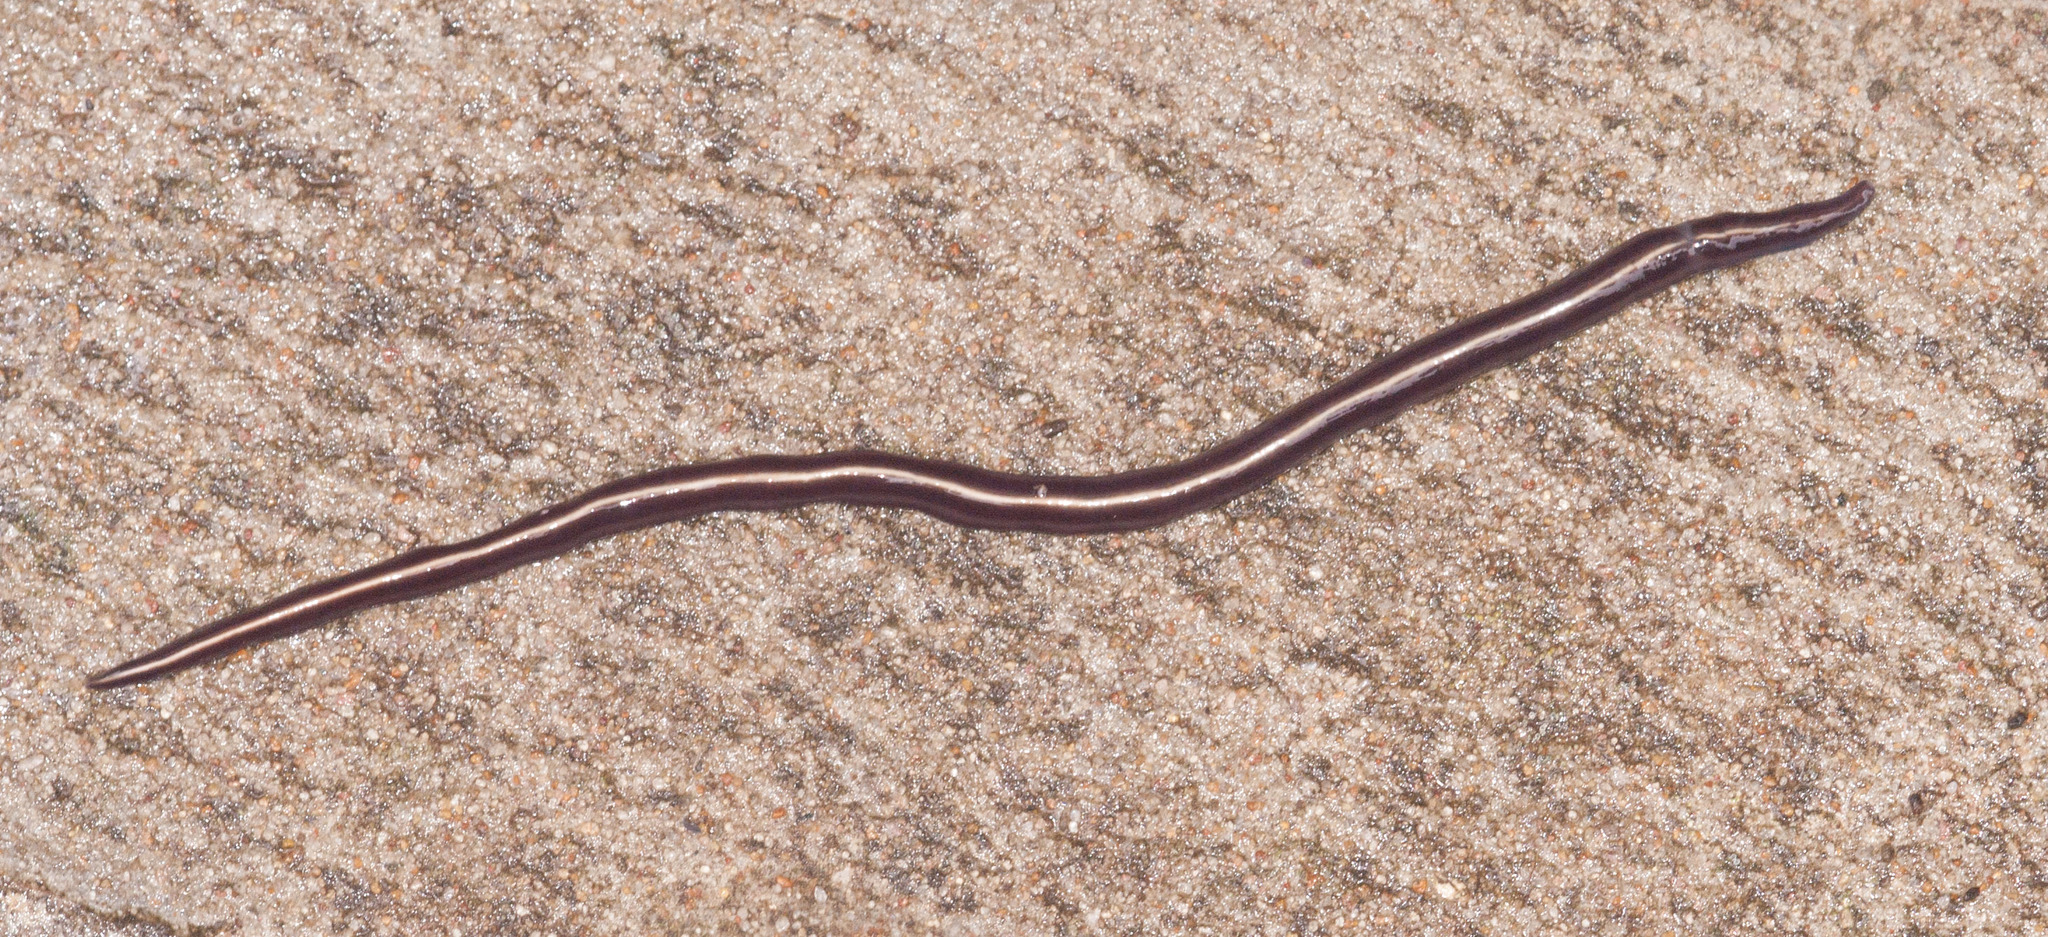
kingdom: Animalia
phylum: Platyhelminthes
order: Tricladida
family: Geoplanidae
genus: Caenoplana
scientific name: Caenoplana coerulea
